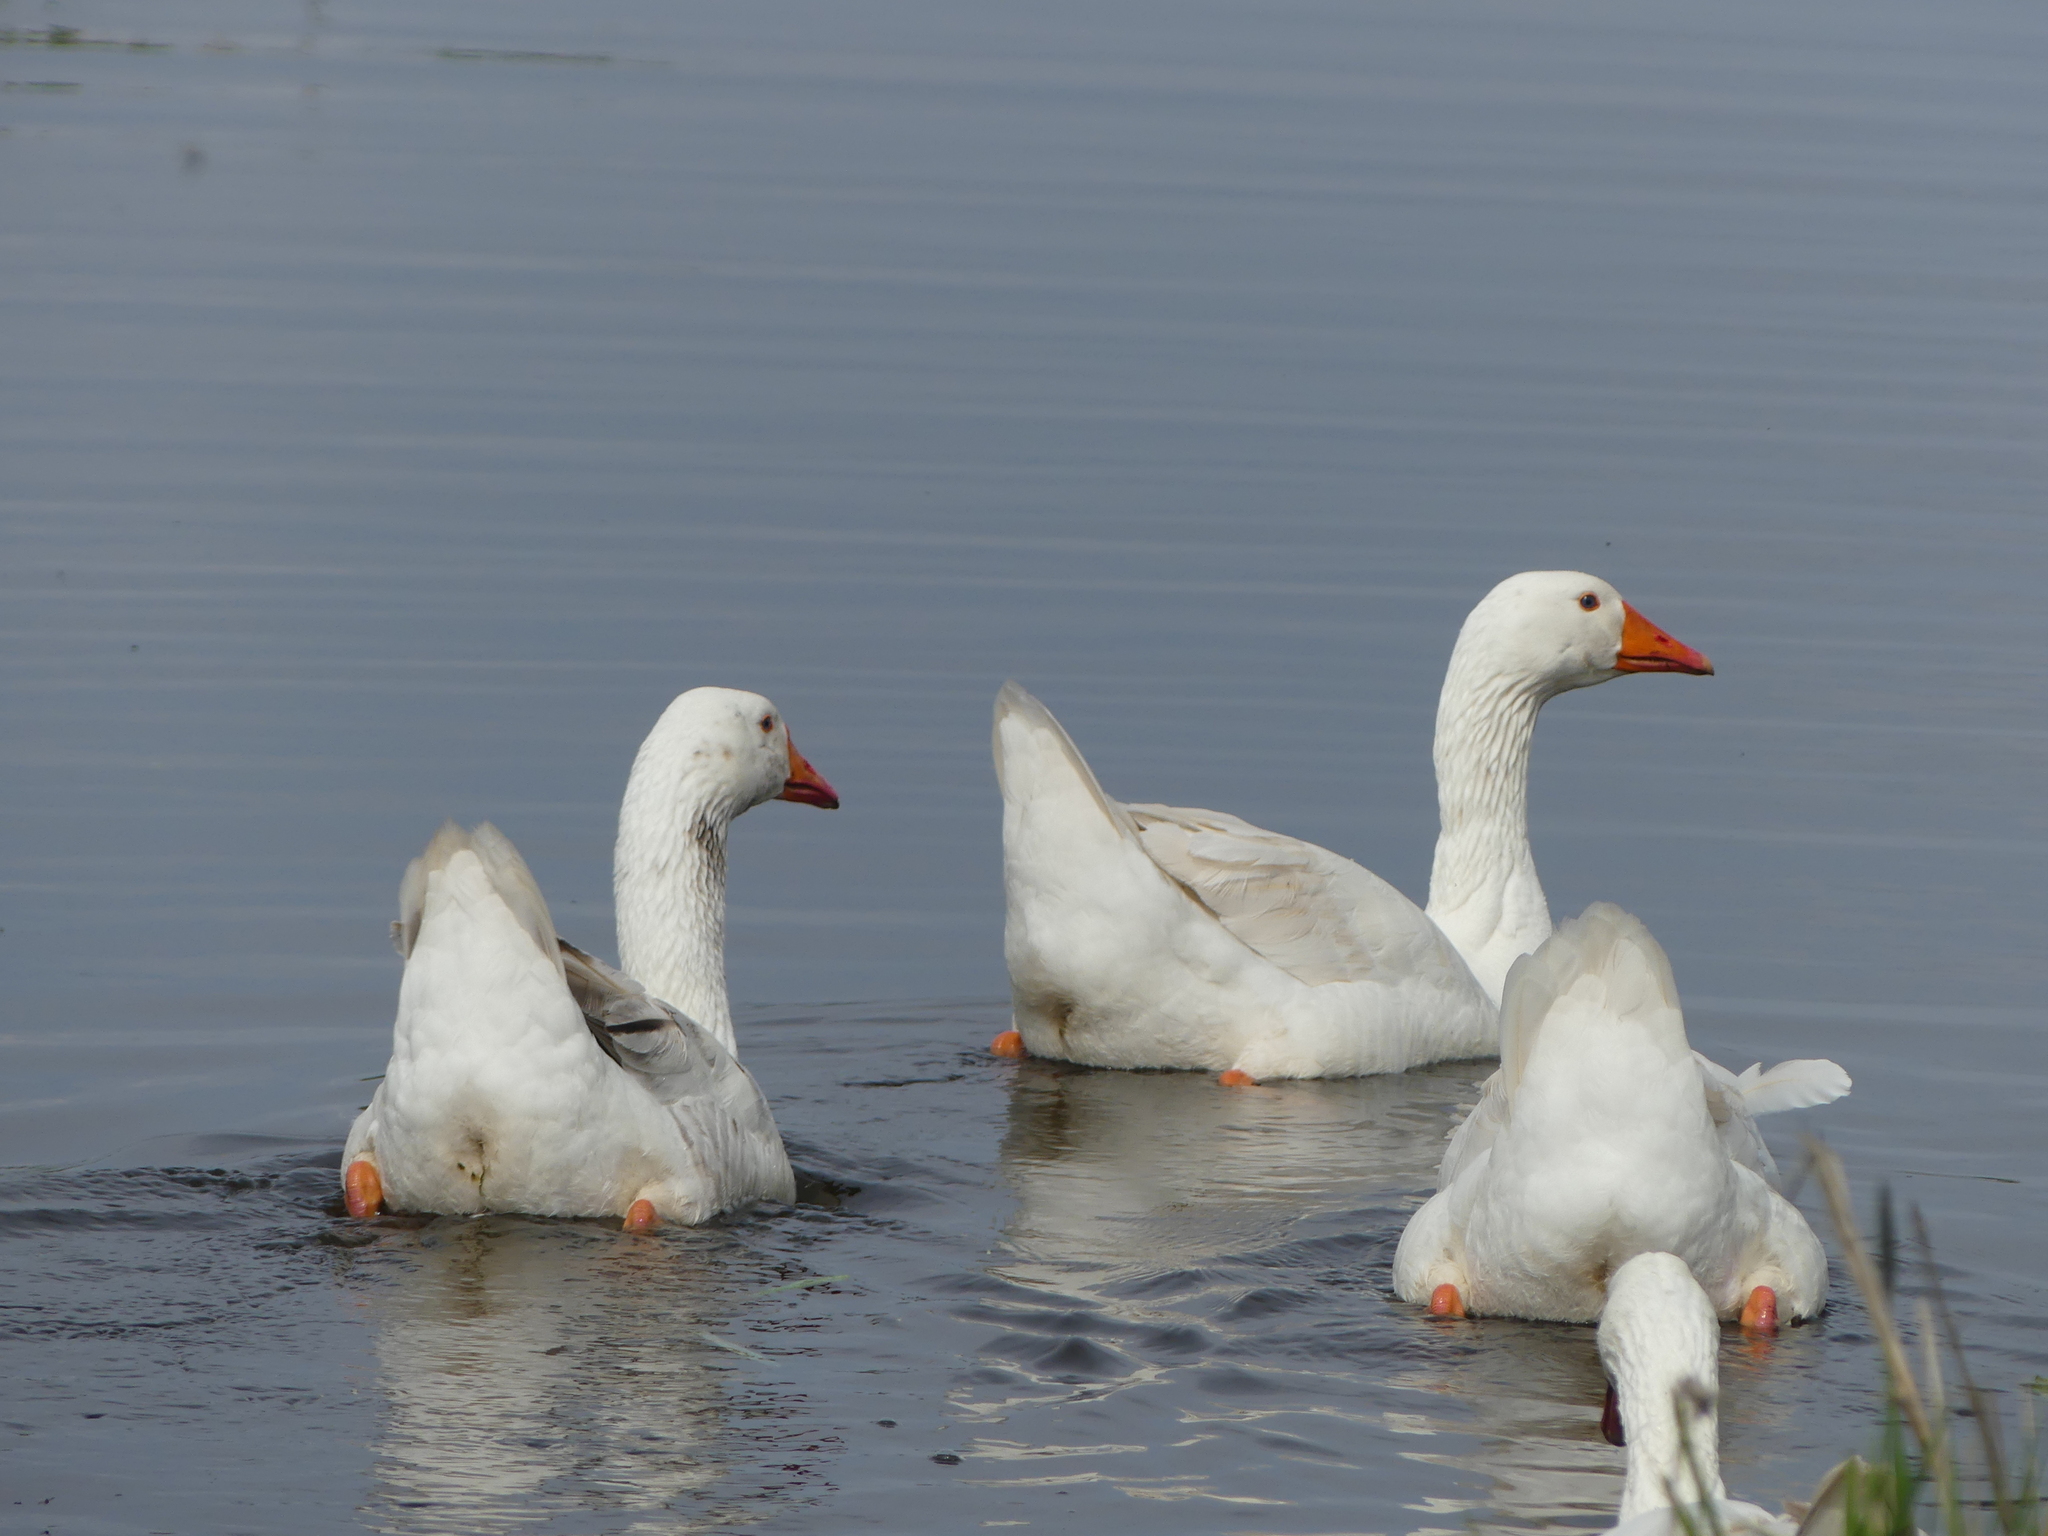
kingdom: Animalia
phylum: Chordata
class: Aves
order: Anseriformes
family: Anatidae
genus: Anser
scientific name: Anser anser
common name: Greylag goose
